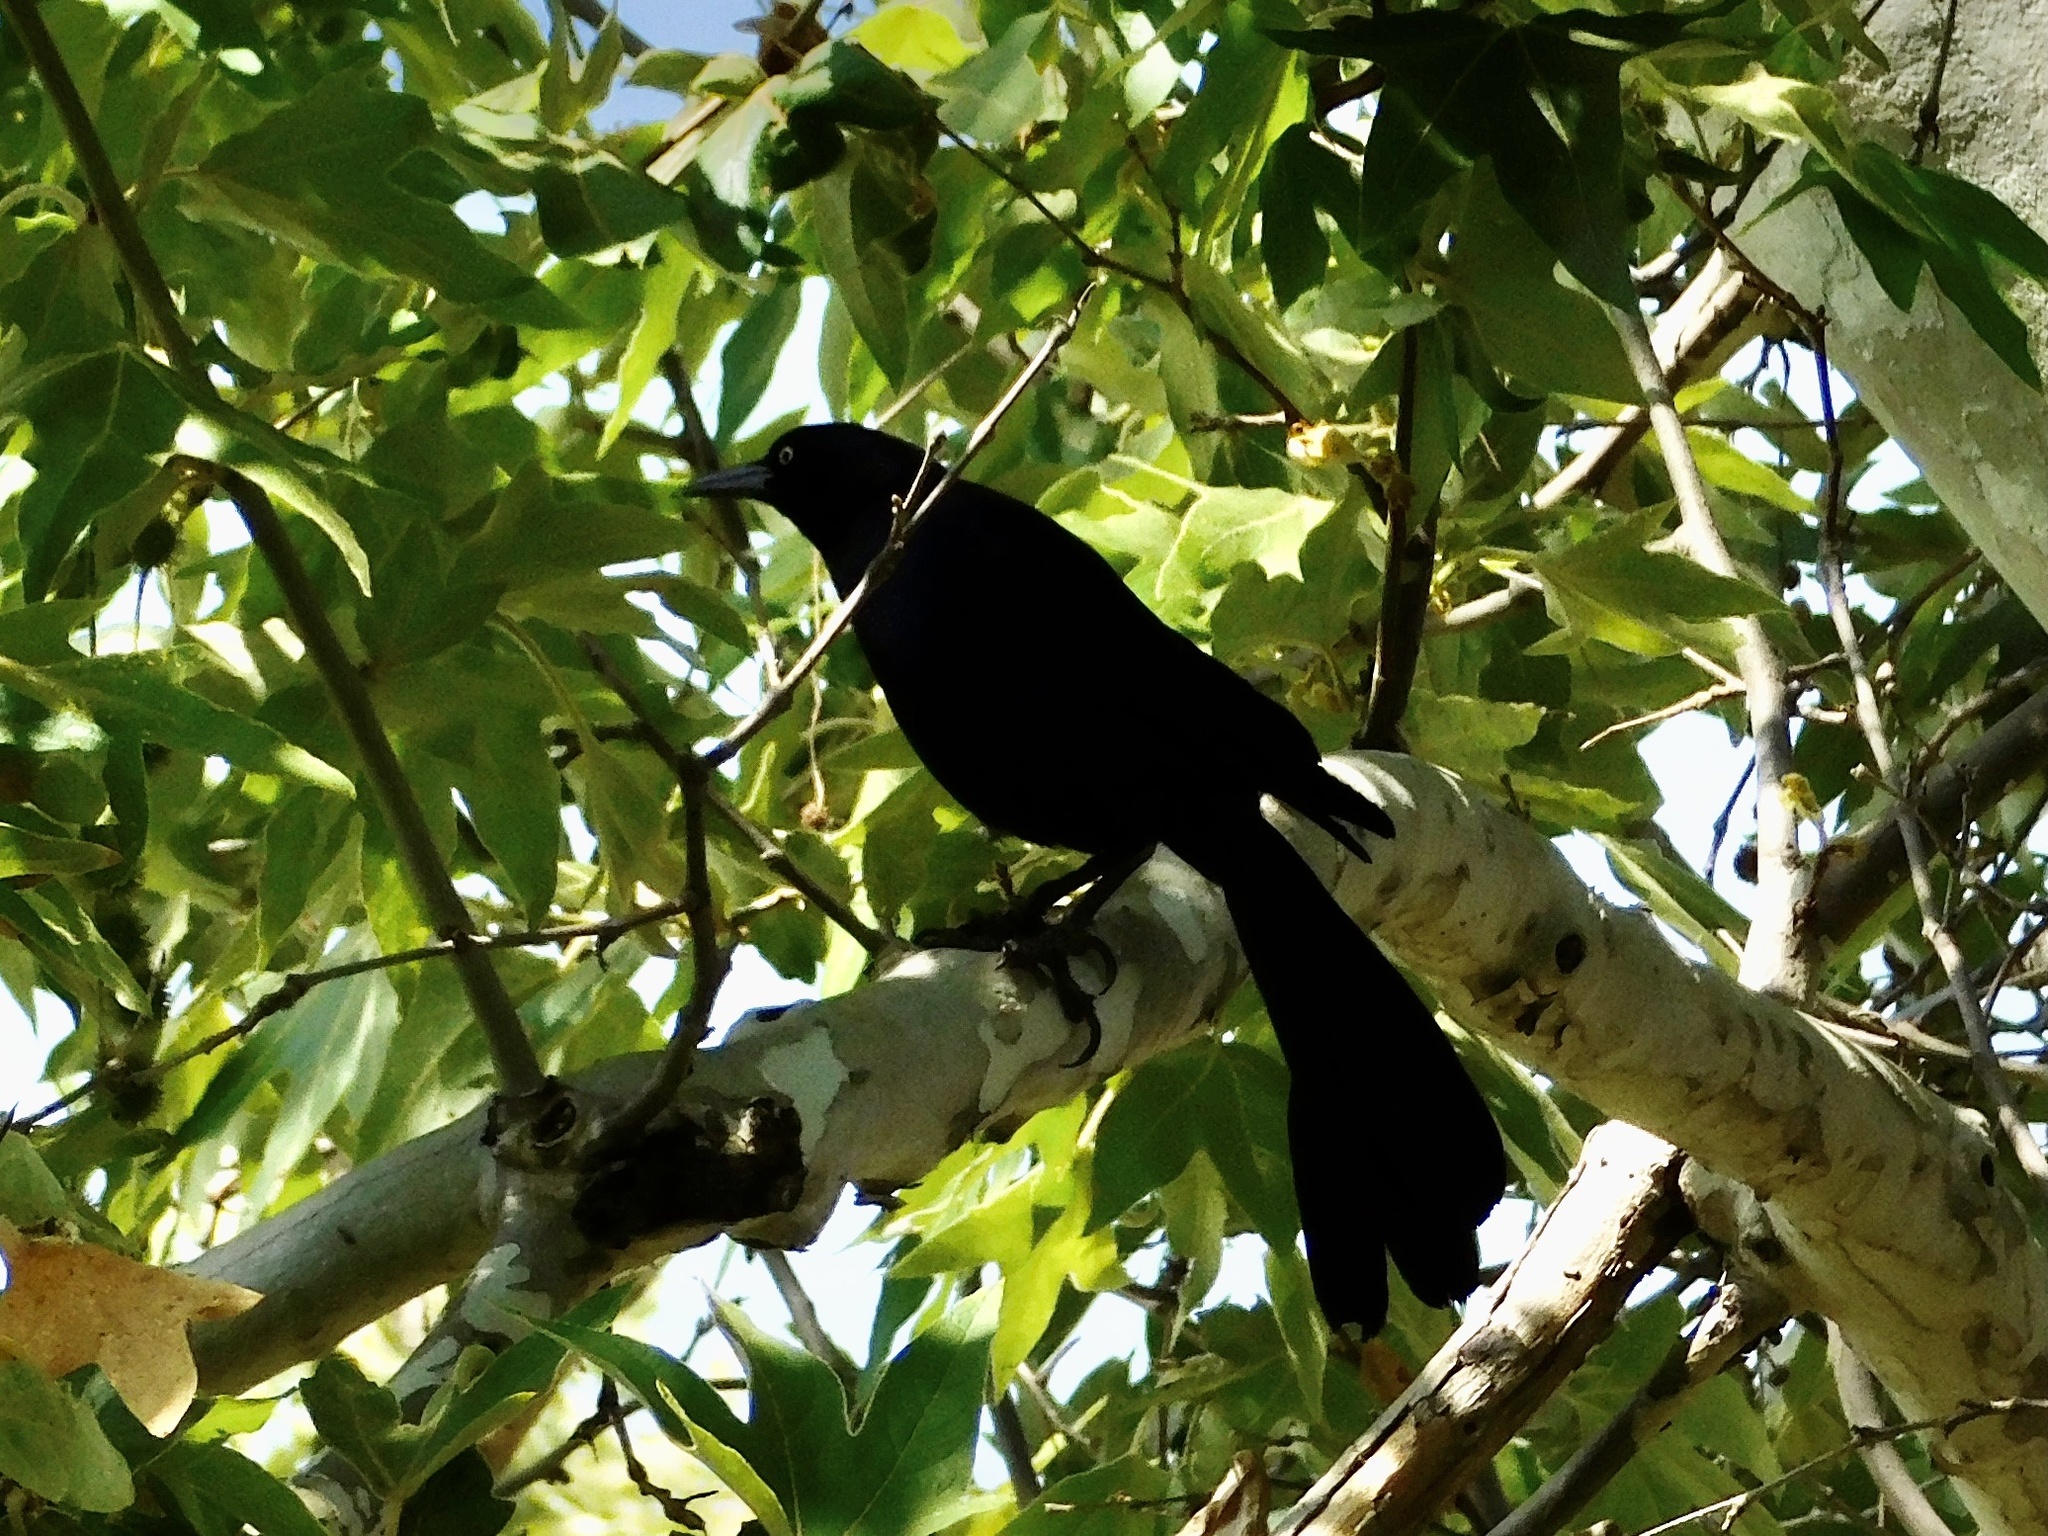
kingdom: Animalia
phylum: Chordata
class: Aves
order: Passeriformes
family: Icteridae
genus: Quiscalus
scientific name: Quiscalus mexicanus
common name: Great-tailed grackle
